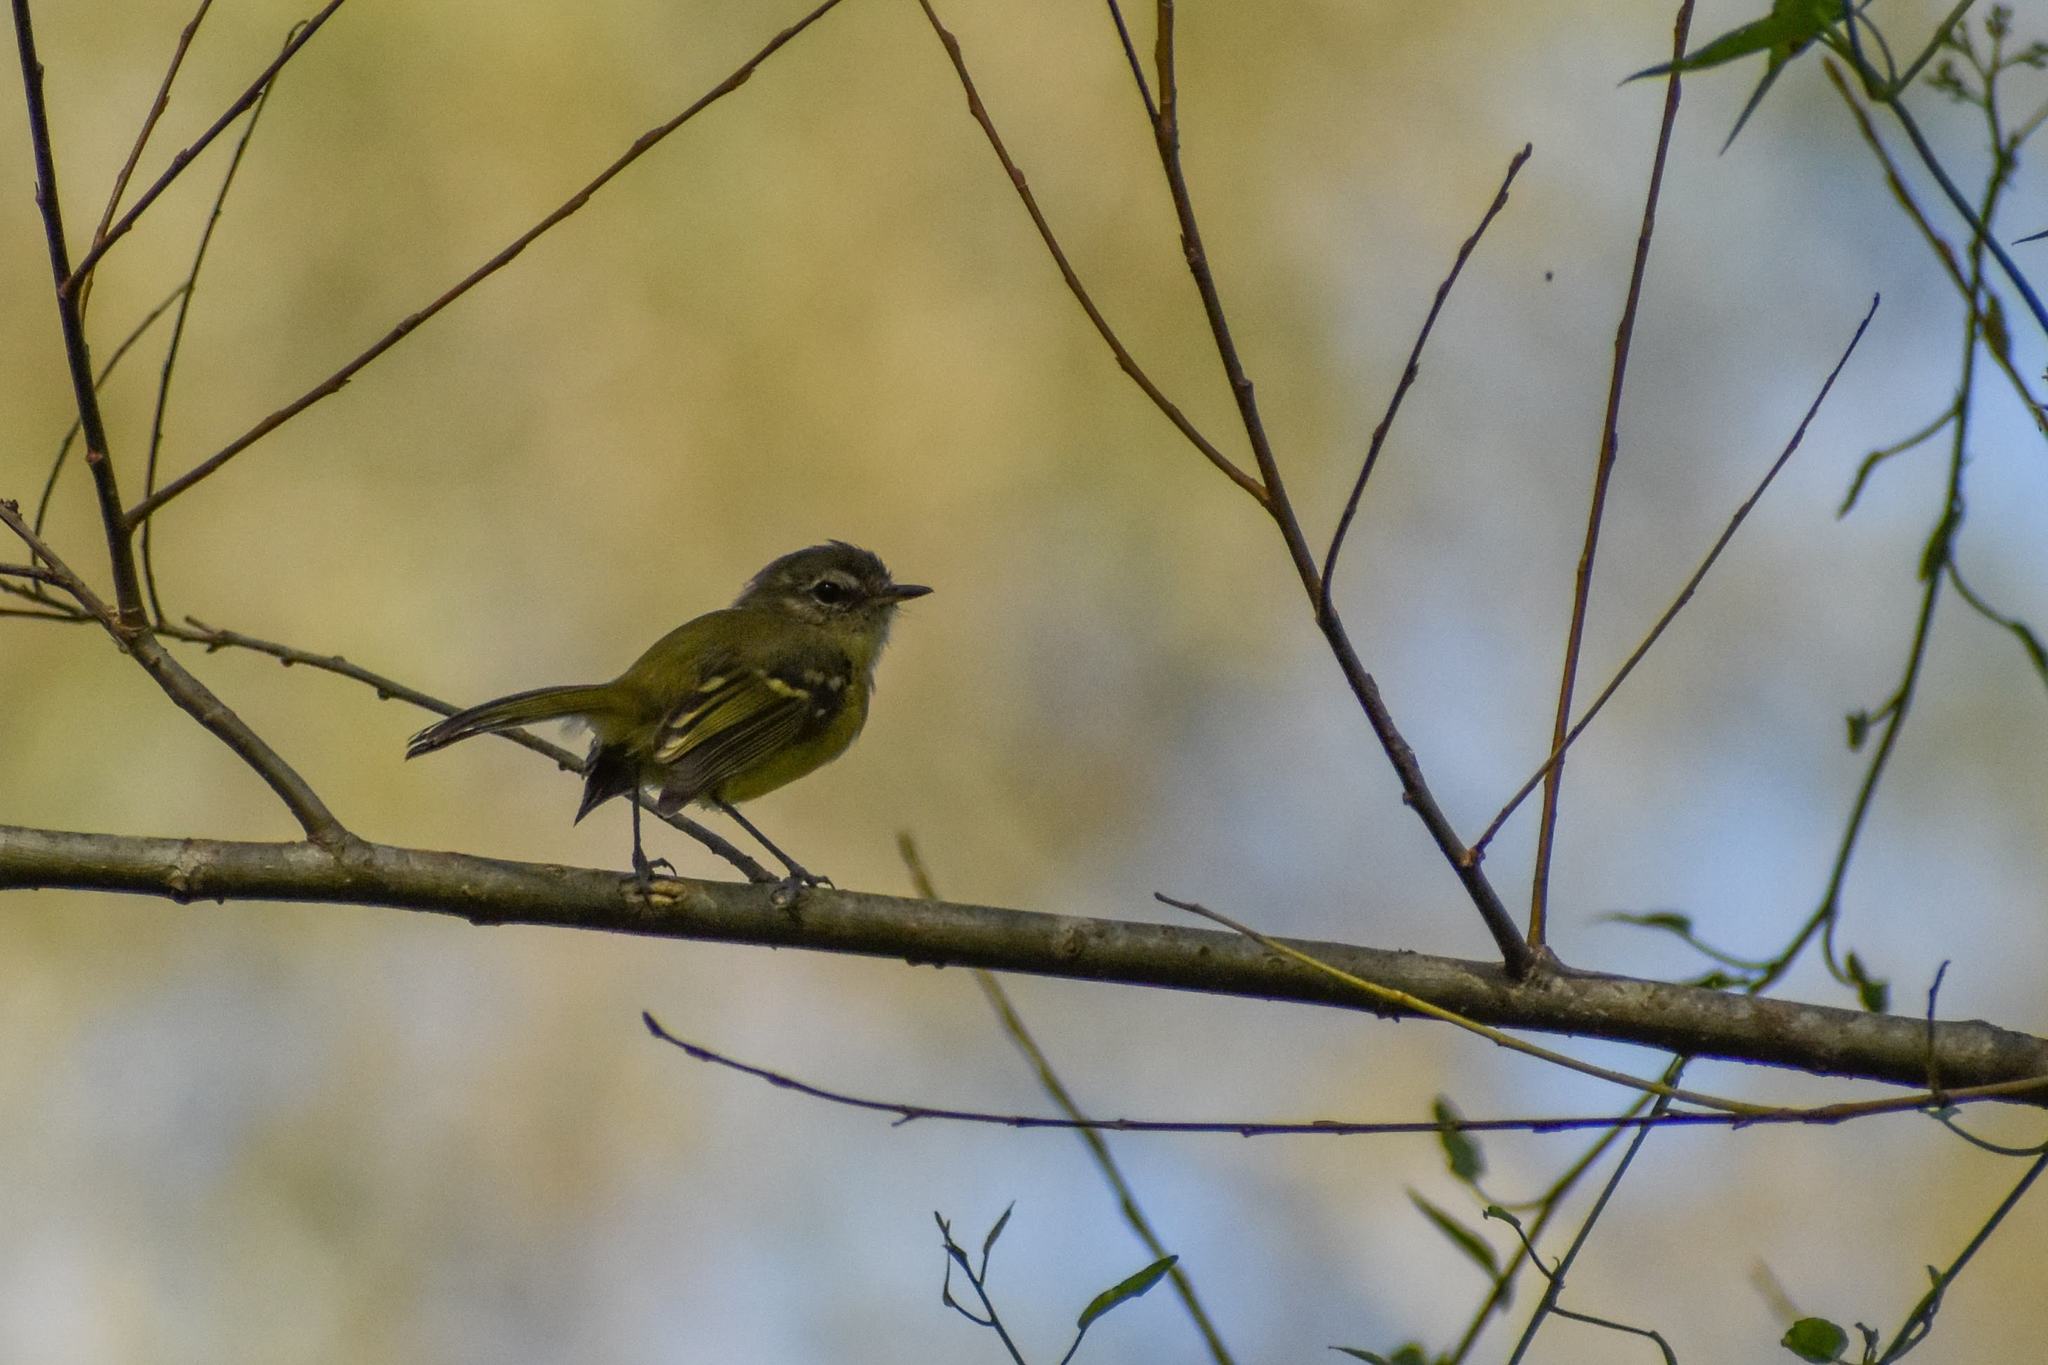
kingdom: Animalia
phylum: Chordata
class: Aves
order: Passeriformes
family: Tyrannidae
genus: Phylloscartes
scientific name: Phylloscartes ventralis
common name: Mottle-cheeked tyrannulet
